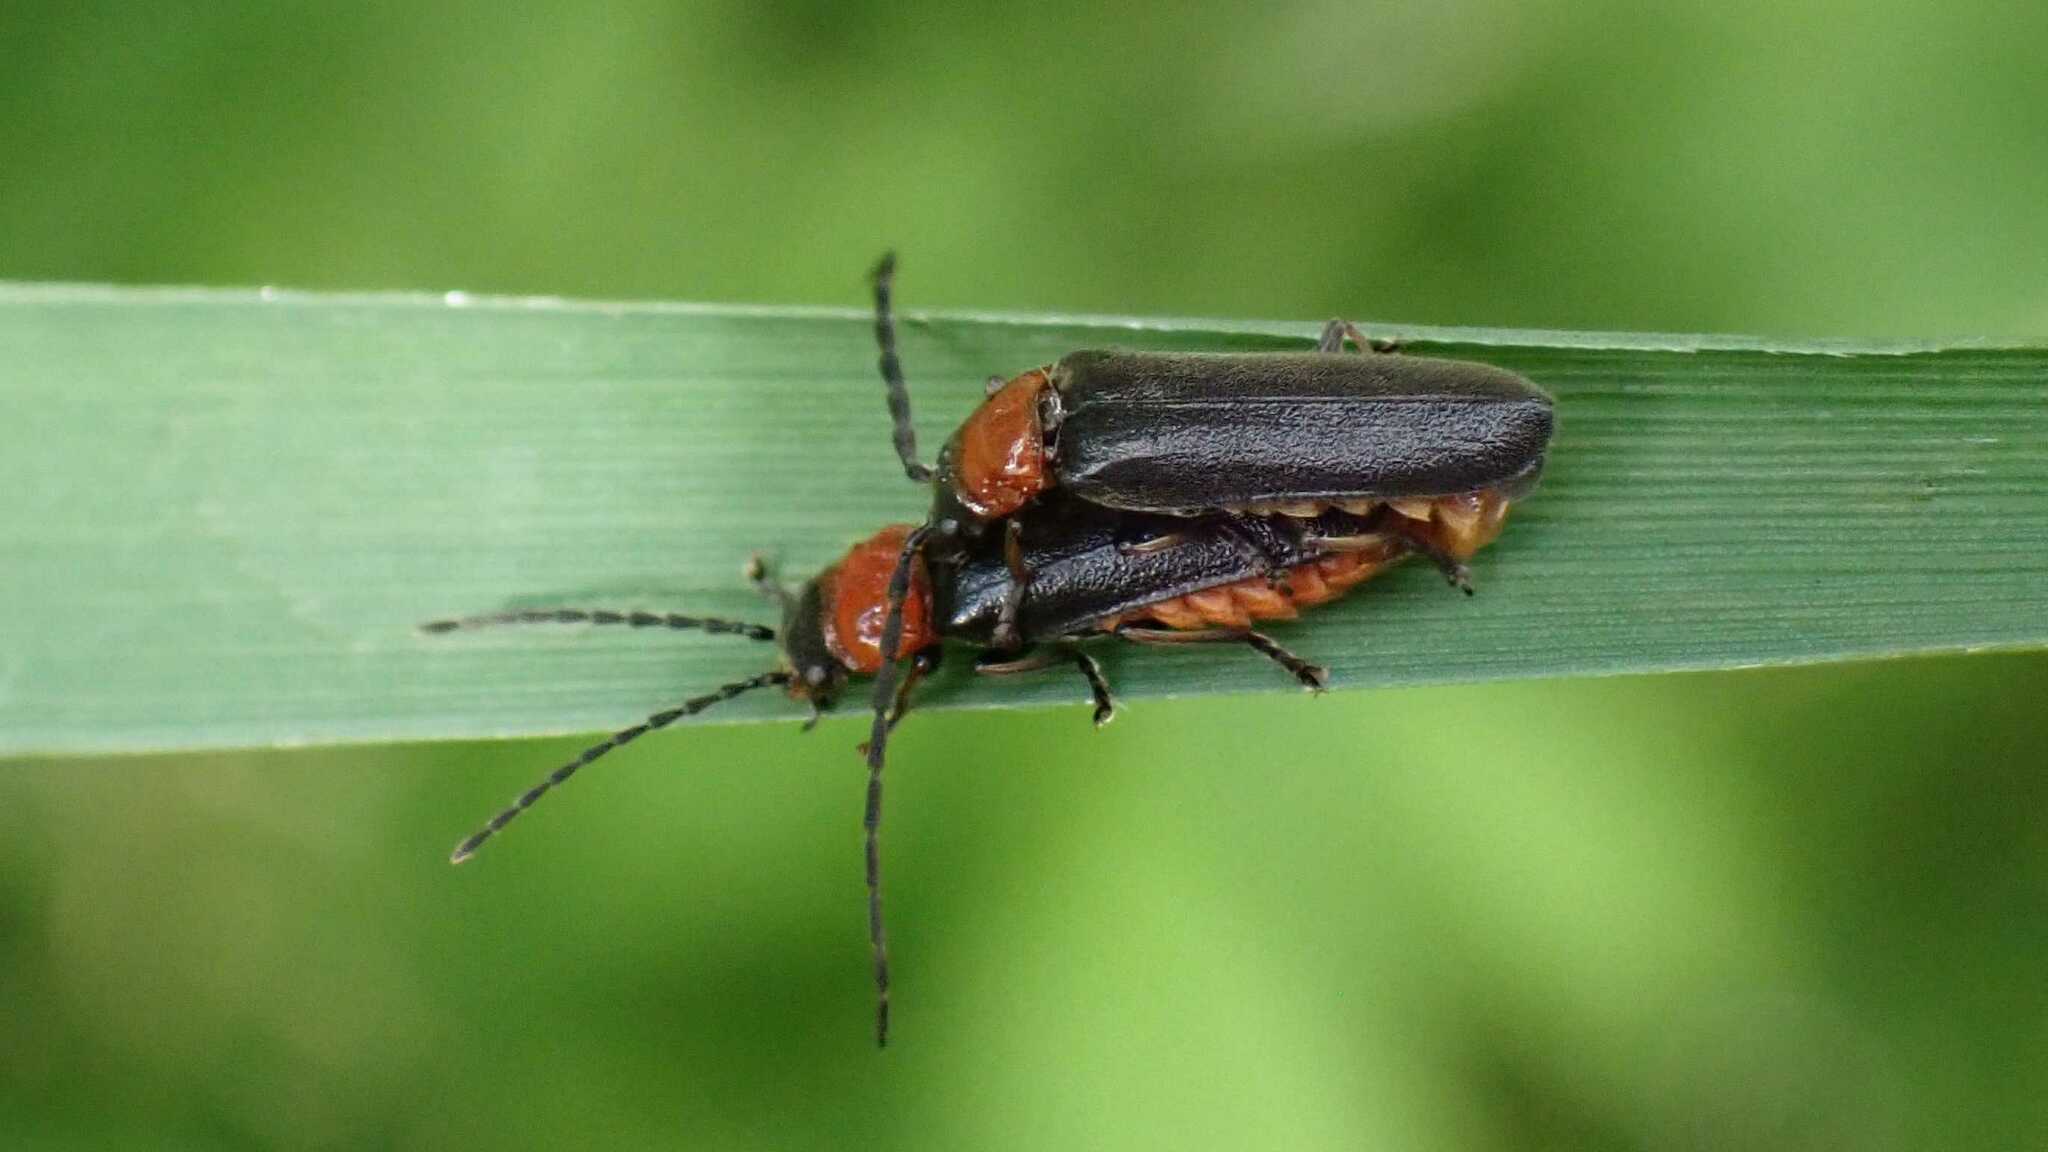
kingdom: Animalia
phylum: Arthropoda
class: Insecta
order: Coleoptera
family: Cantharidae
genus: Crudosilis
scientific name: Crudosilis ruficollis
